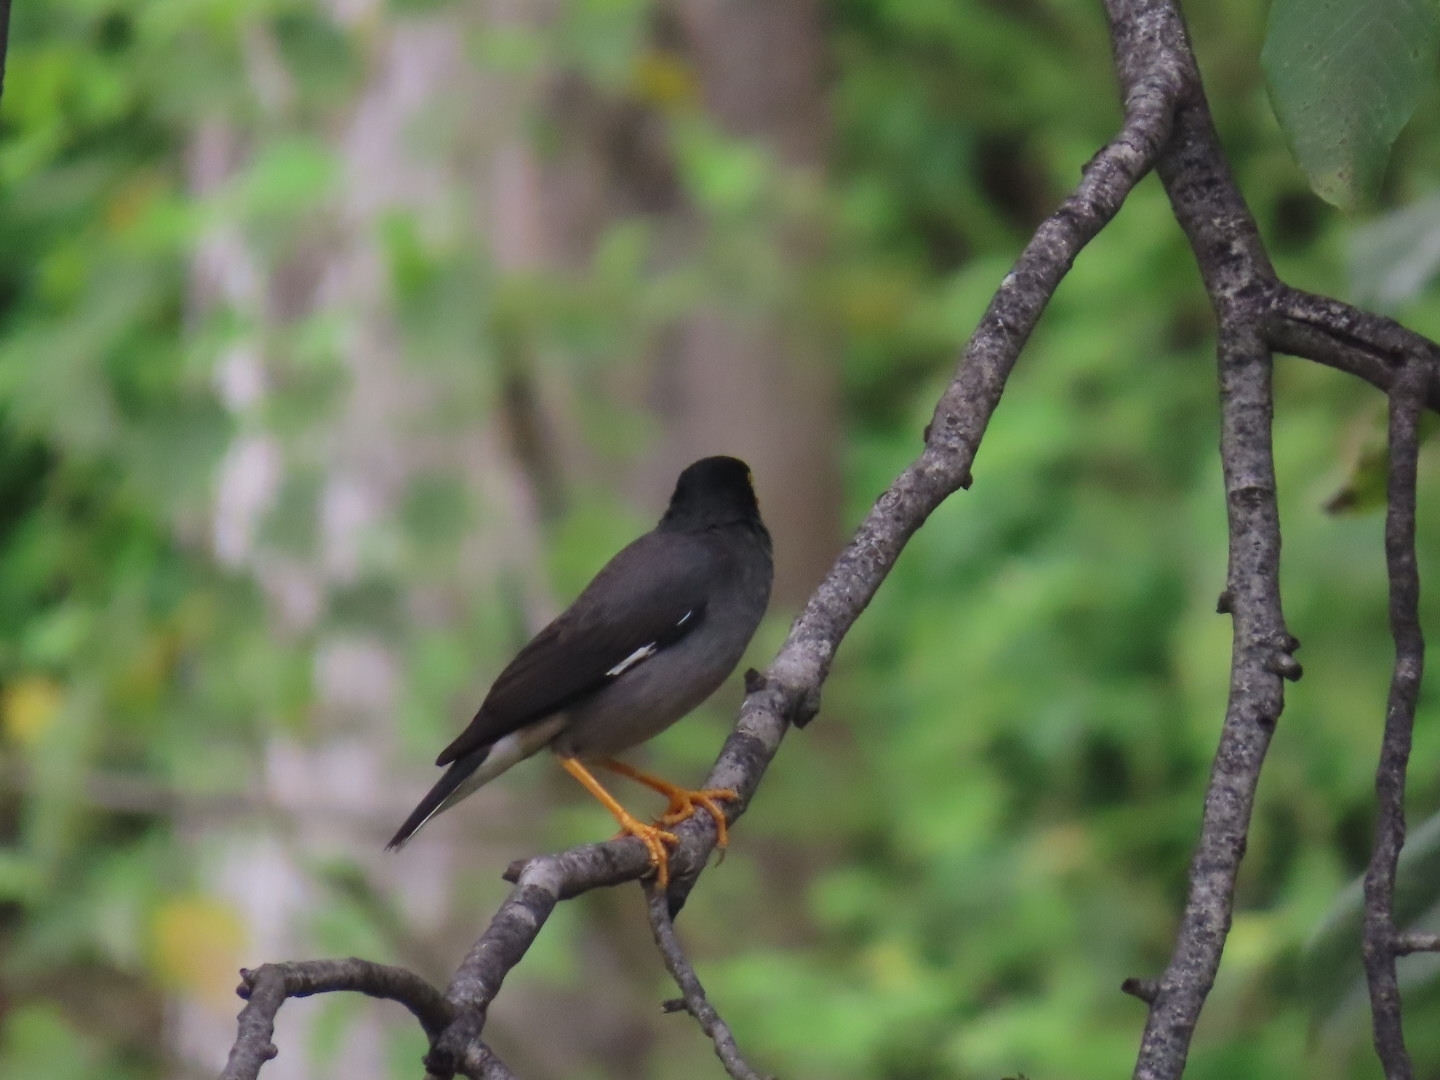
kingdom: Animalia
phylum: Chordata
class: Aves
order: Passeriformes
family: Sturnidae
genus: Acridotheres
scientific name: Acridotheres fuscus
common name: Jungle myna
